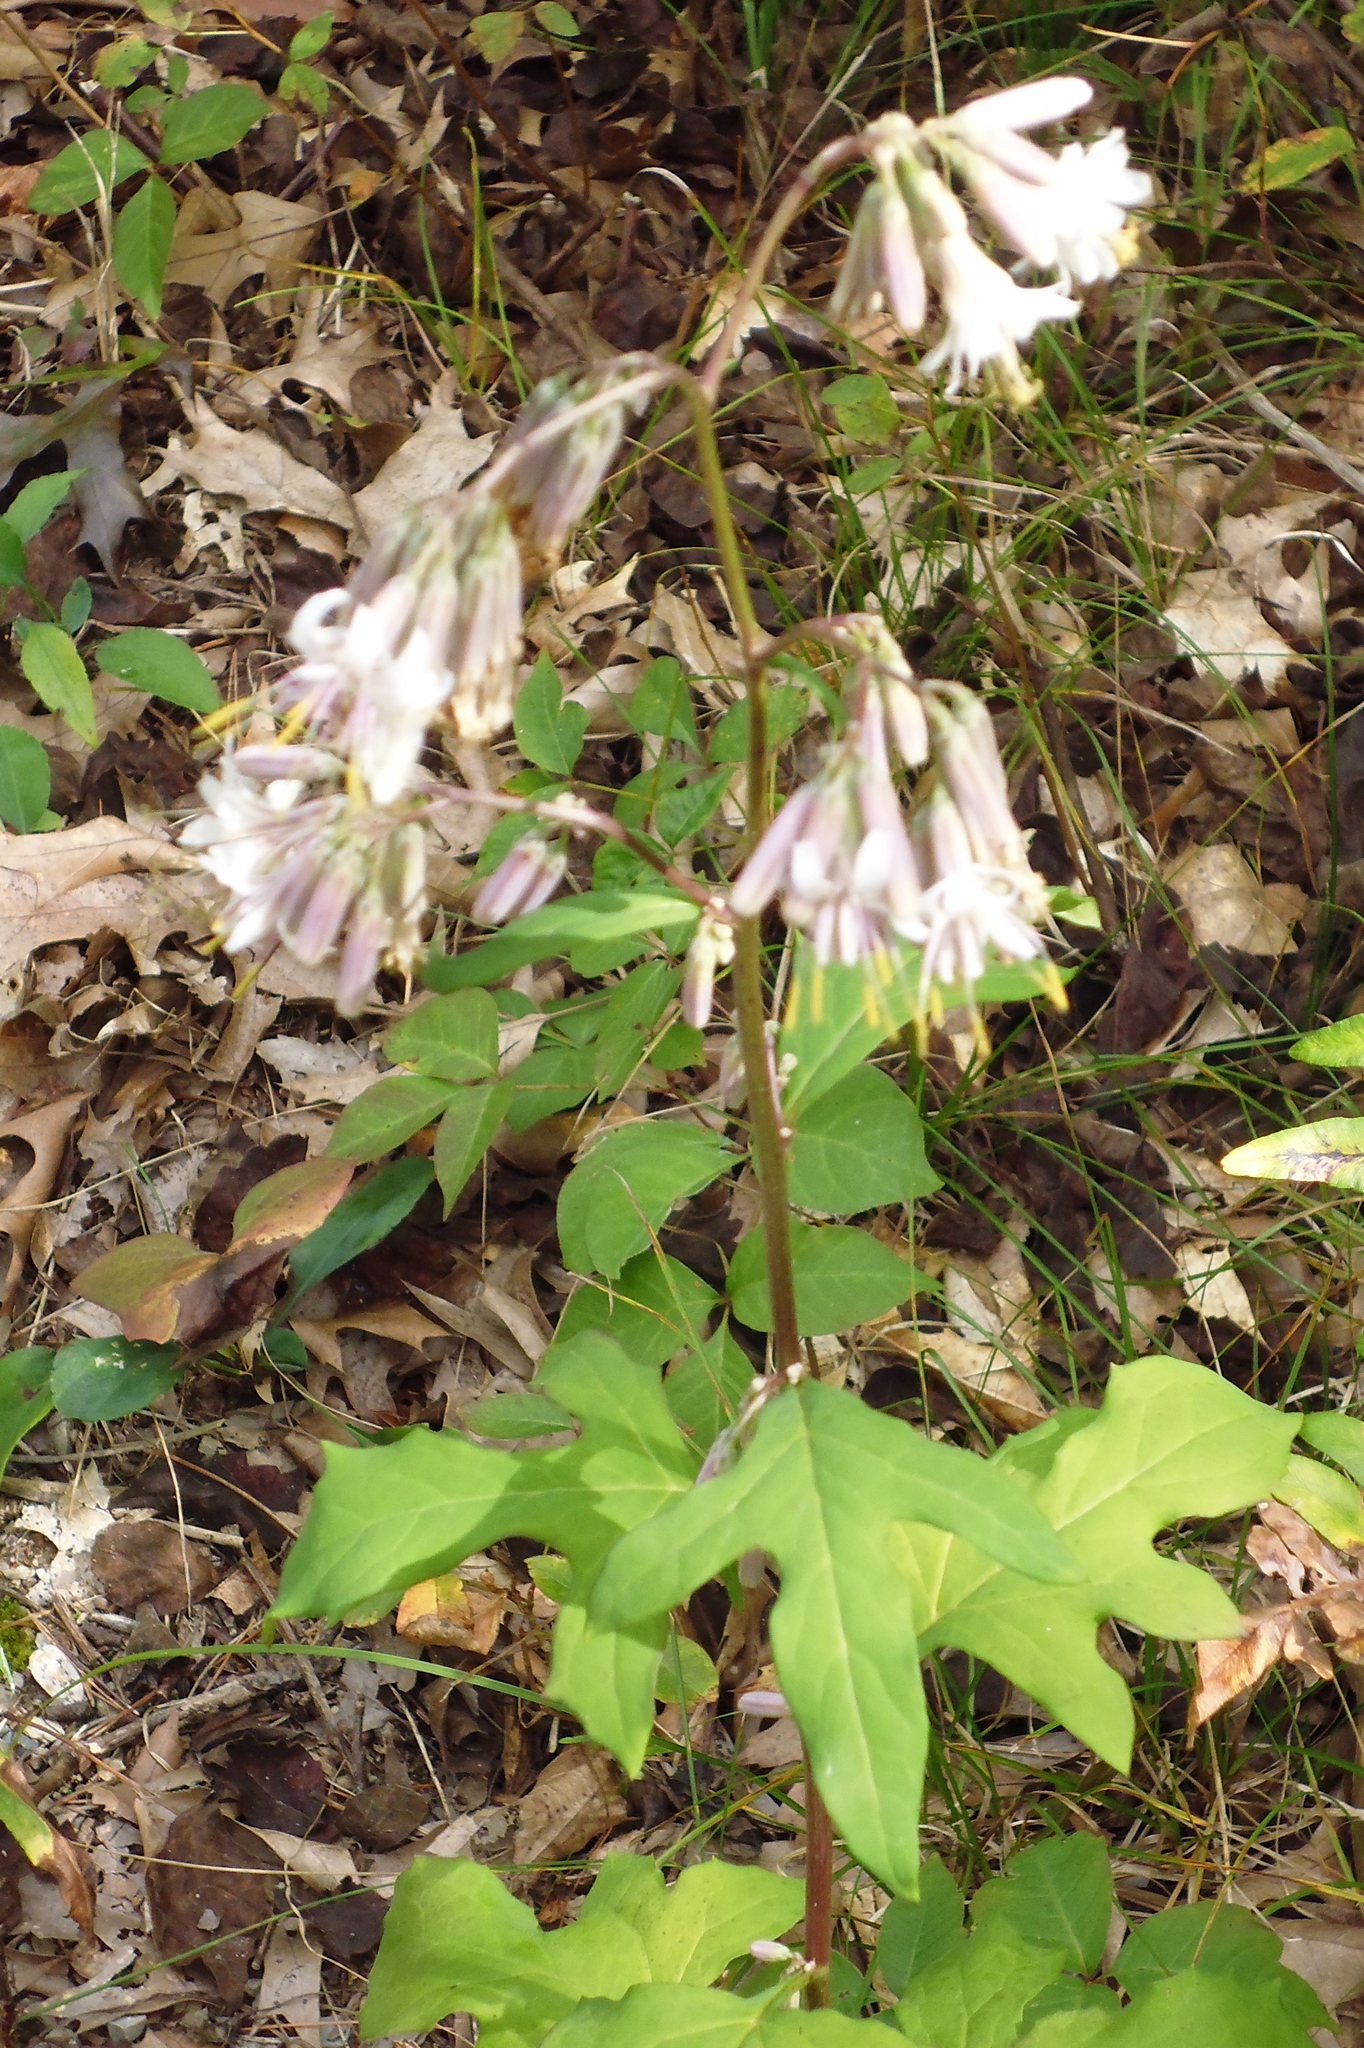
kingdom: Plantae
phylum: Tracheophyta
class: Magnoliopsida
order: Asterales
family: Asteraceae
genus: Nabalus
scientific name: Nabalus albus
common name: White rattlesnakeroot
